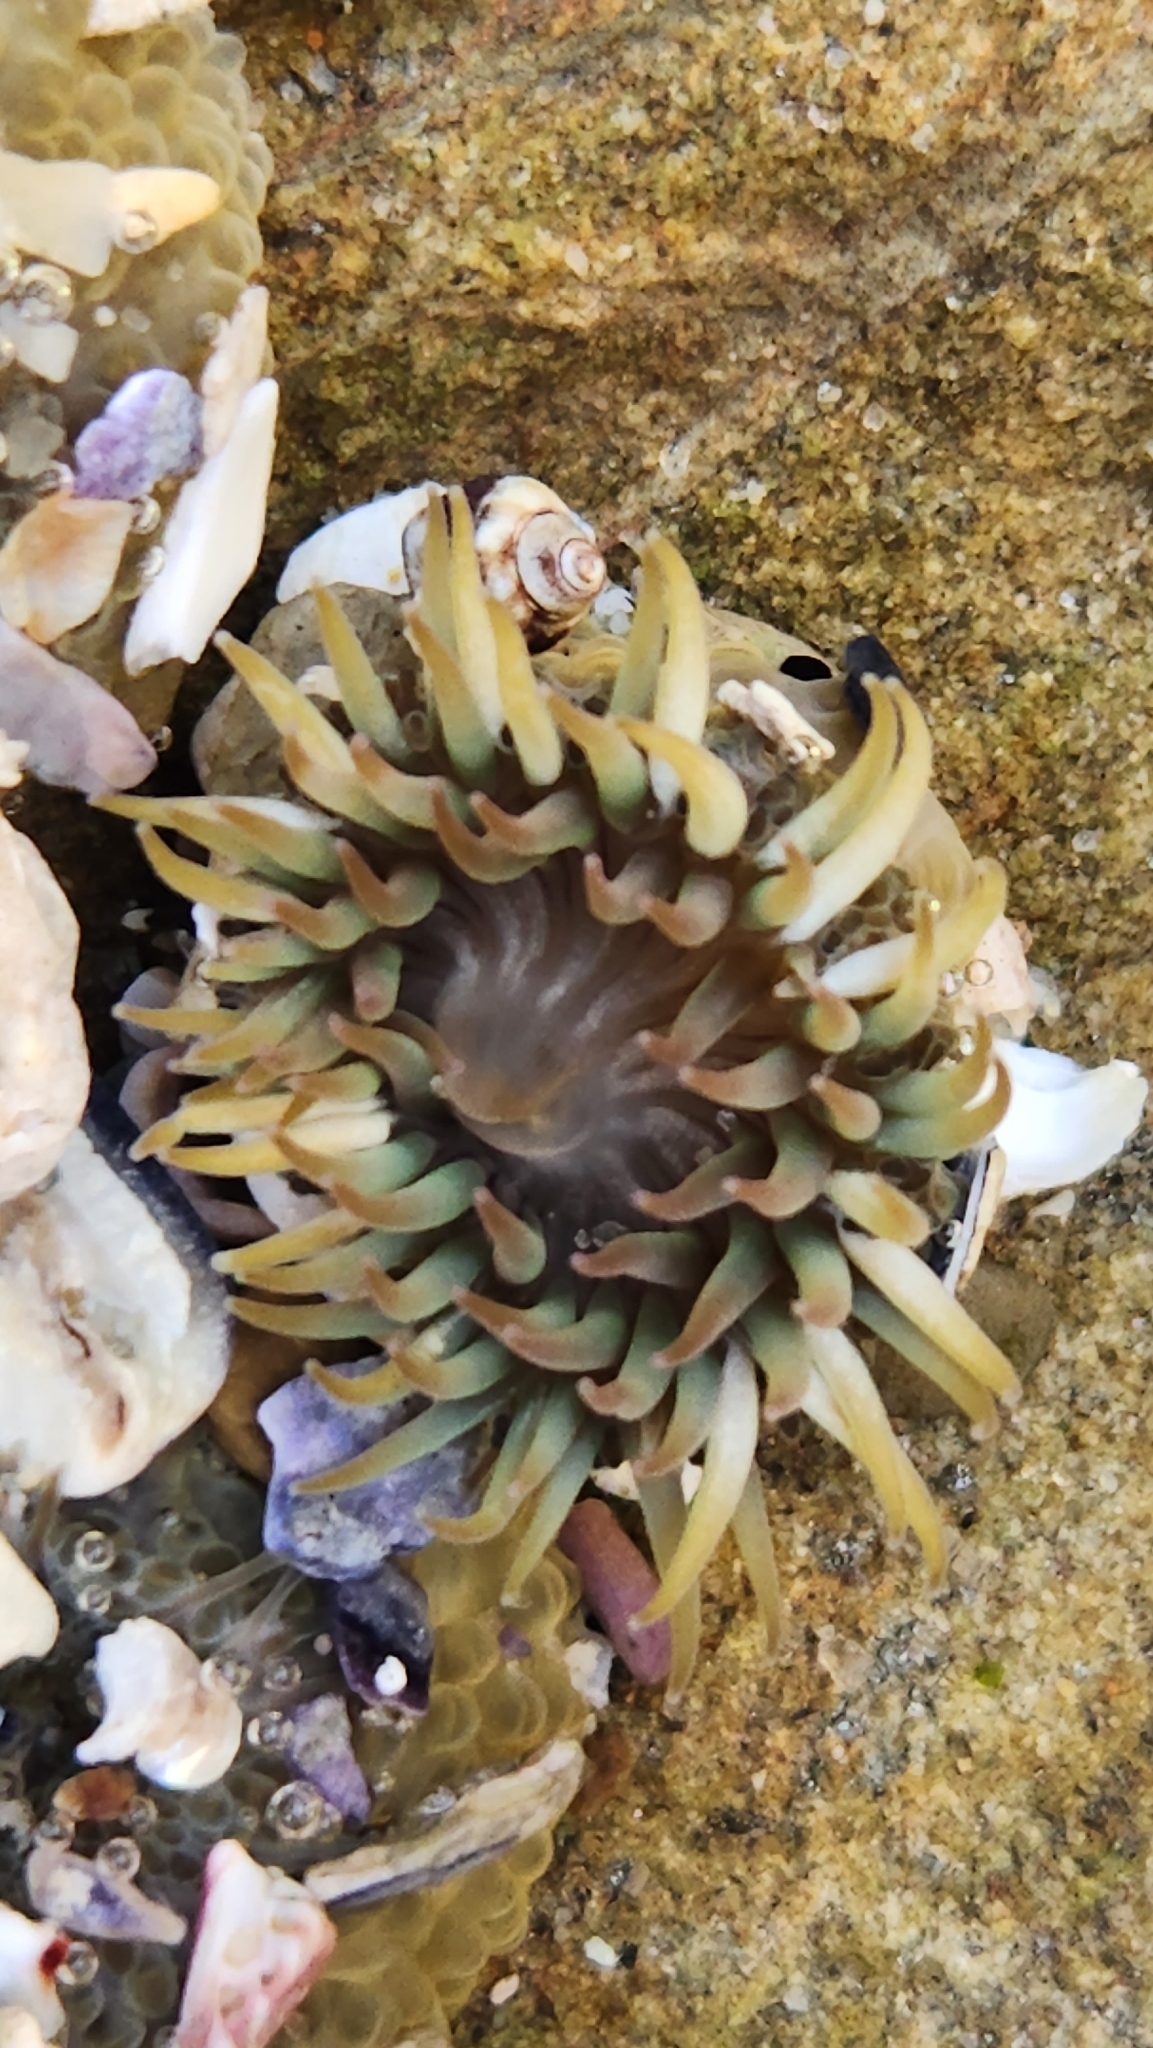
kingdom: Animalia
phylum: Cnidaria
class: Anthozoa
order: Actiniaria
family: Actiniidae
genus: Anthopleura
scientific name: Anthopleura elegantissima
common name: Clonal anemone
